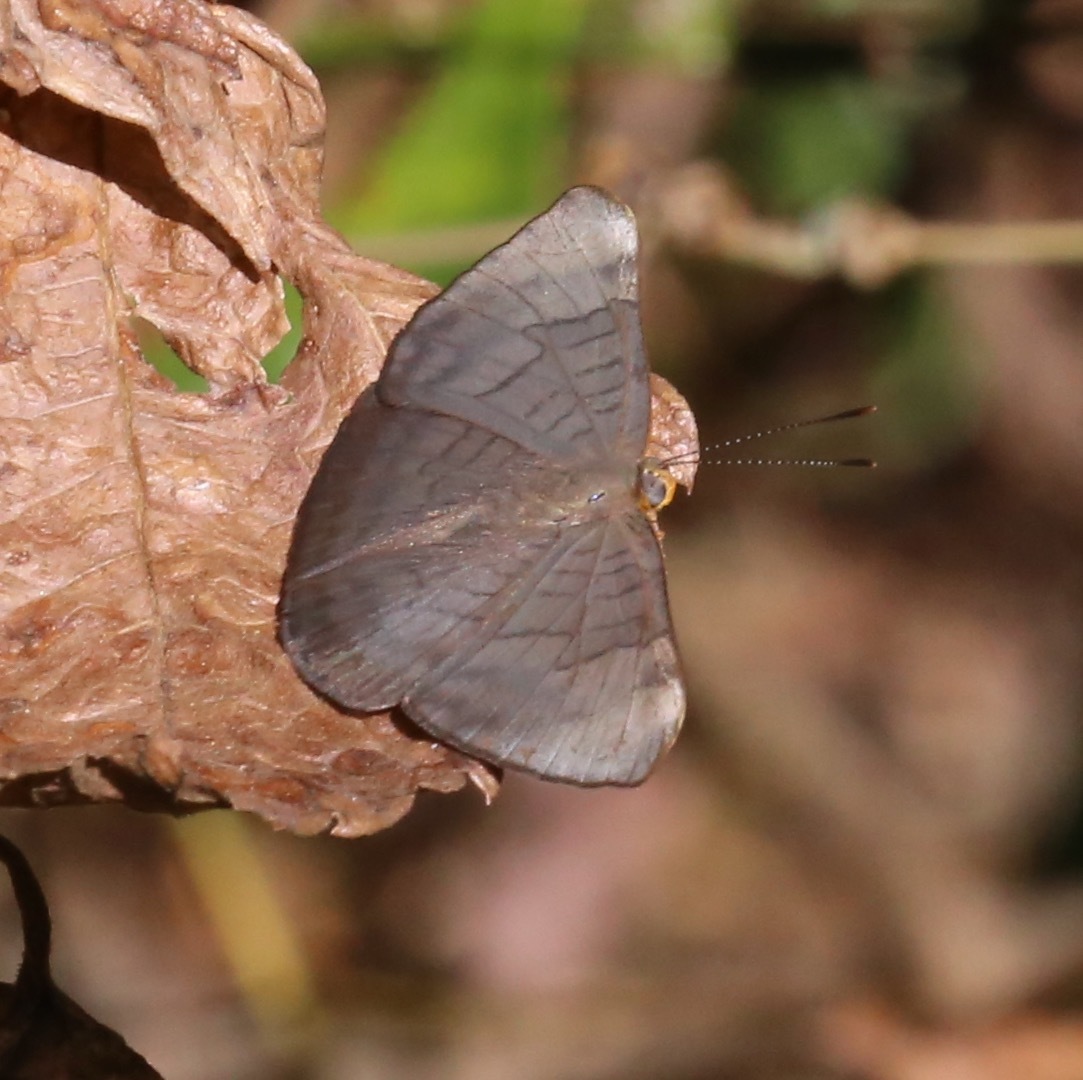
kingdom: Animalia
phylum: Arthropoda
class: Insecta
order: Lepidoptera
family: Lycaenidae
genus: Emesis
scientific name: Emesis lucinda
